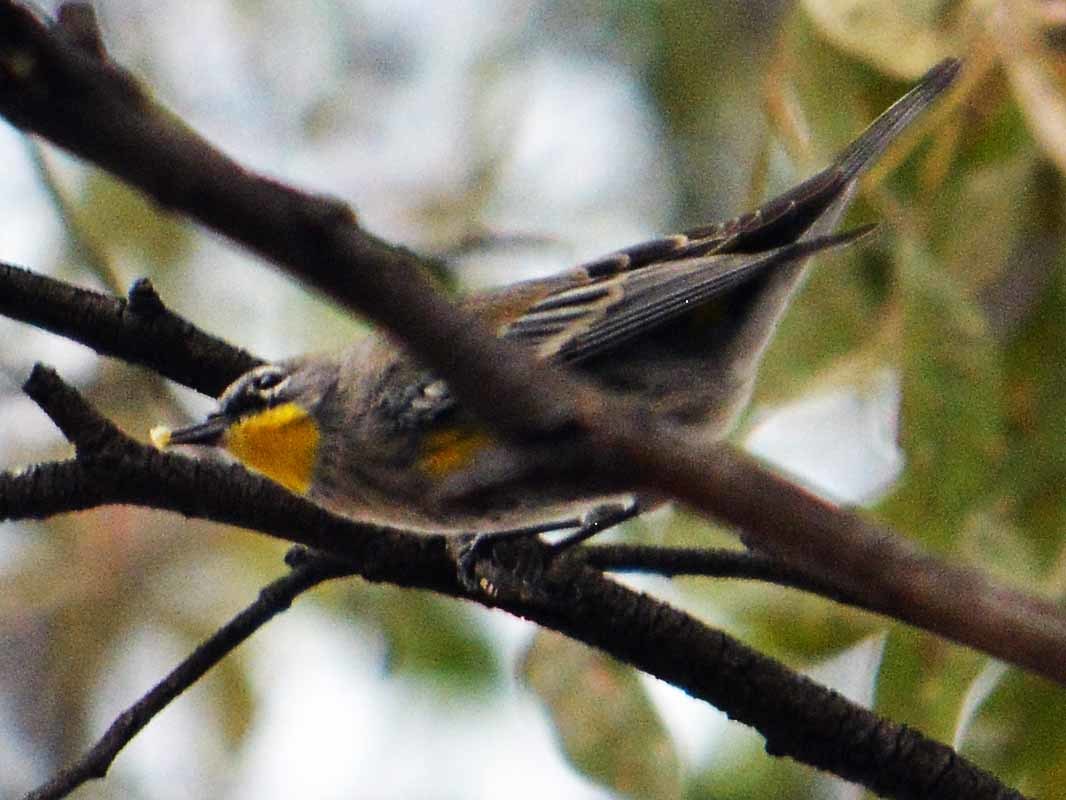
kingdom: Animalia
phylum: Chordata
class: Aves
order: Passeriformes
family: Parulidae
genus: Setophaga
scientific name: Setophaga coronata
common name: Myrtle warbler
